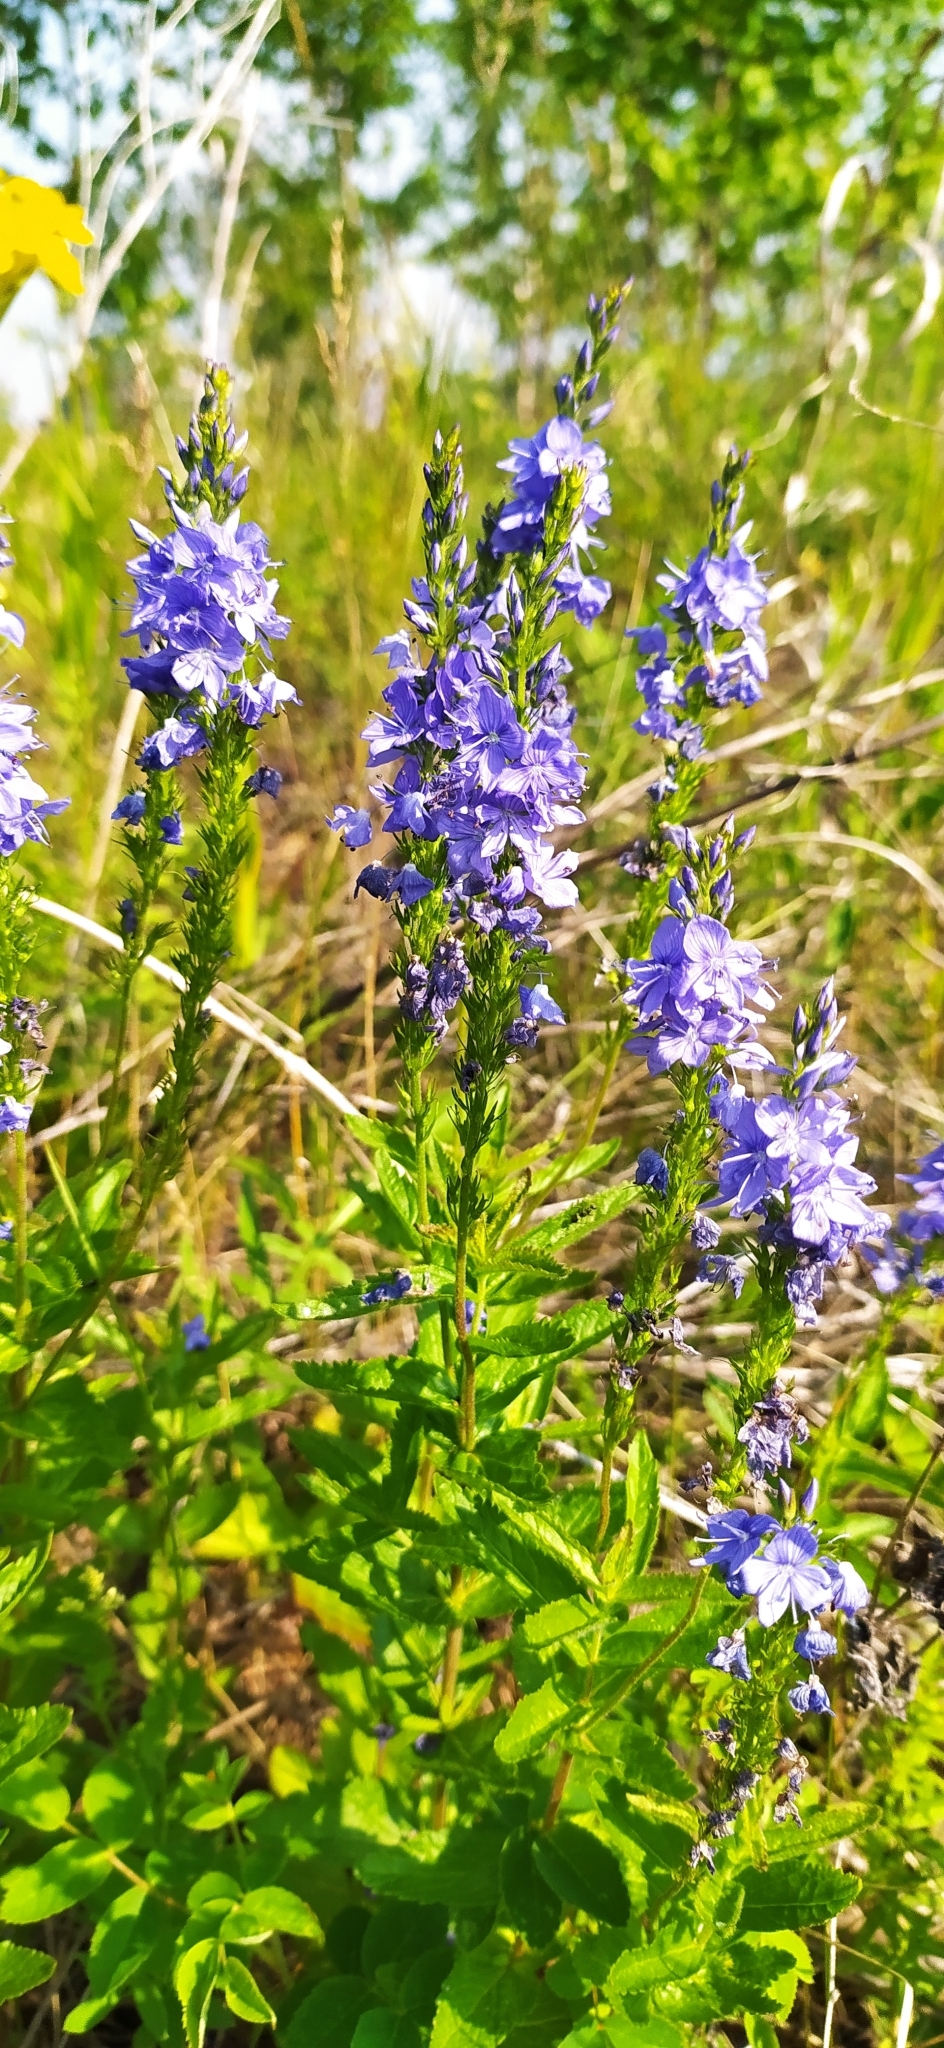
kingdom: Plantae
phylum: Tracheophyta
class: Magnoliopsida
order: Lamiales
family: Plantaginaceae
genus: Veronica
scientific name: Veronica teucrium
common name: Large speedwell
